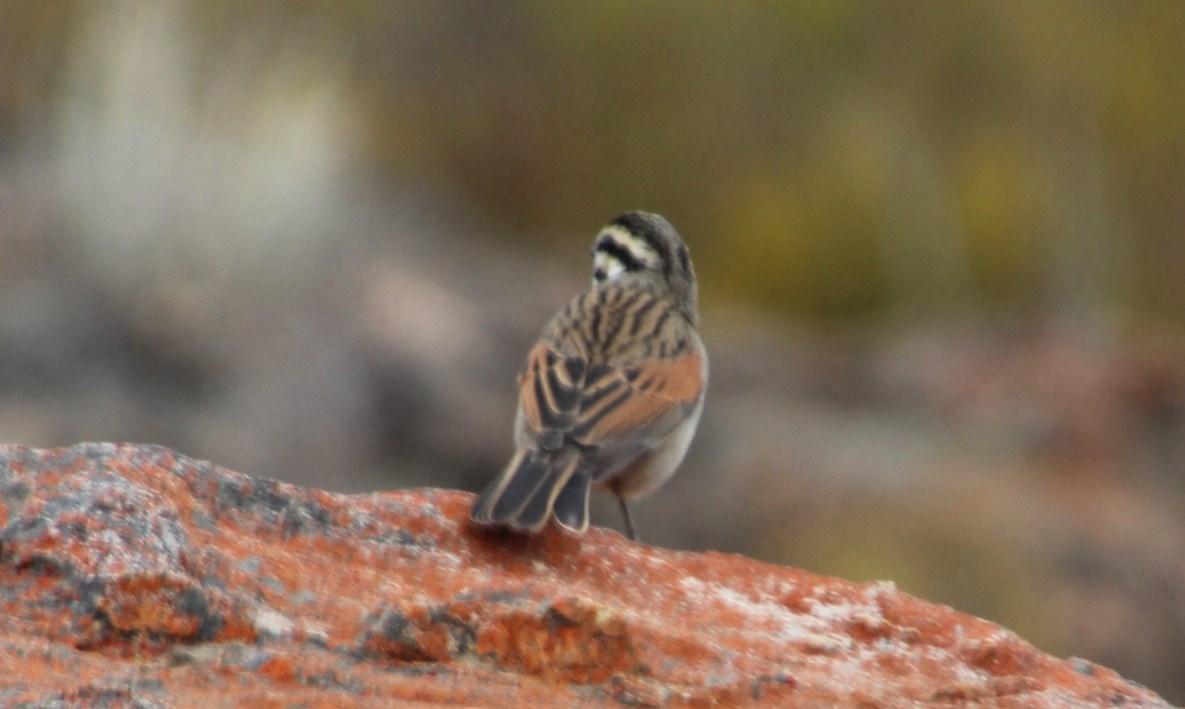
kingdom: Animalia
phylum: Chordata
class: Aves
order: Passeriformes
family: Emberizidae
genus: Emberiza
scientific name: Emberiza capensis
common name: Cape bunting
